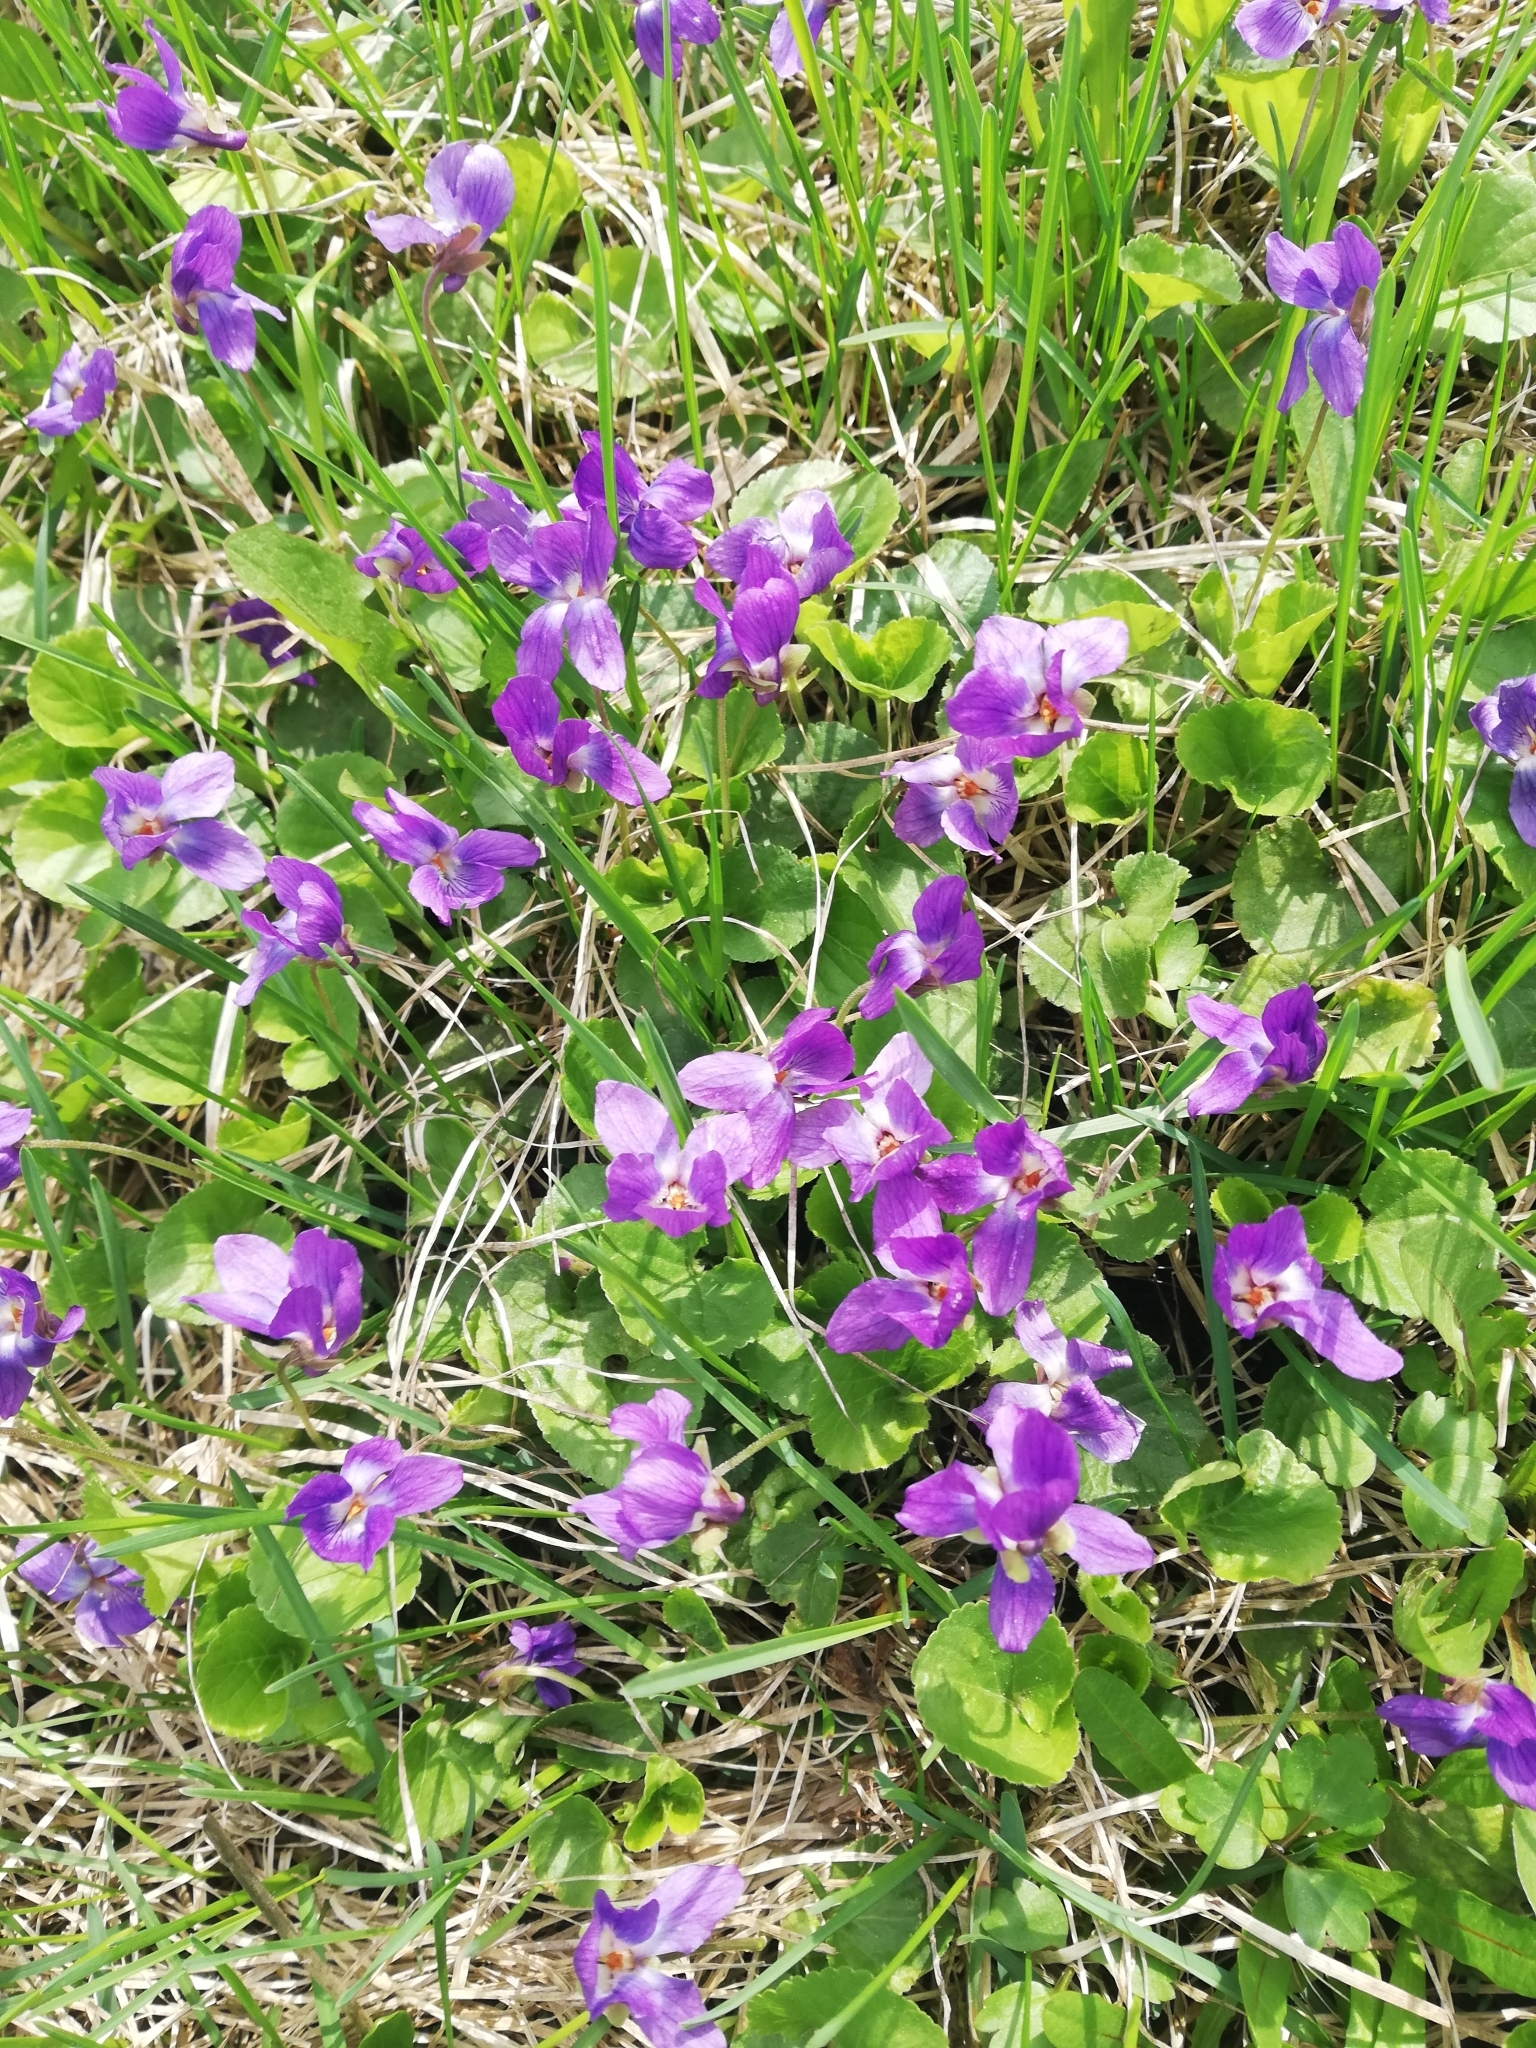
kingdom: Plantae
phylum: Tracheophyta
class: Magnoliopsida
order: Malpighiales
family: Violaceae
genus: Viola
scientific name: Viola odorata
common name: Sweet violet
